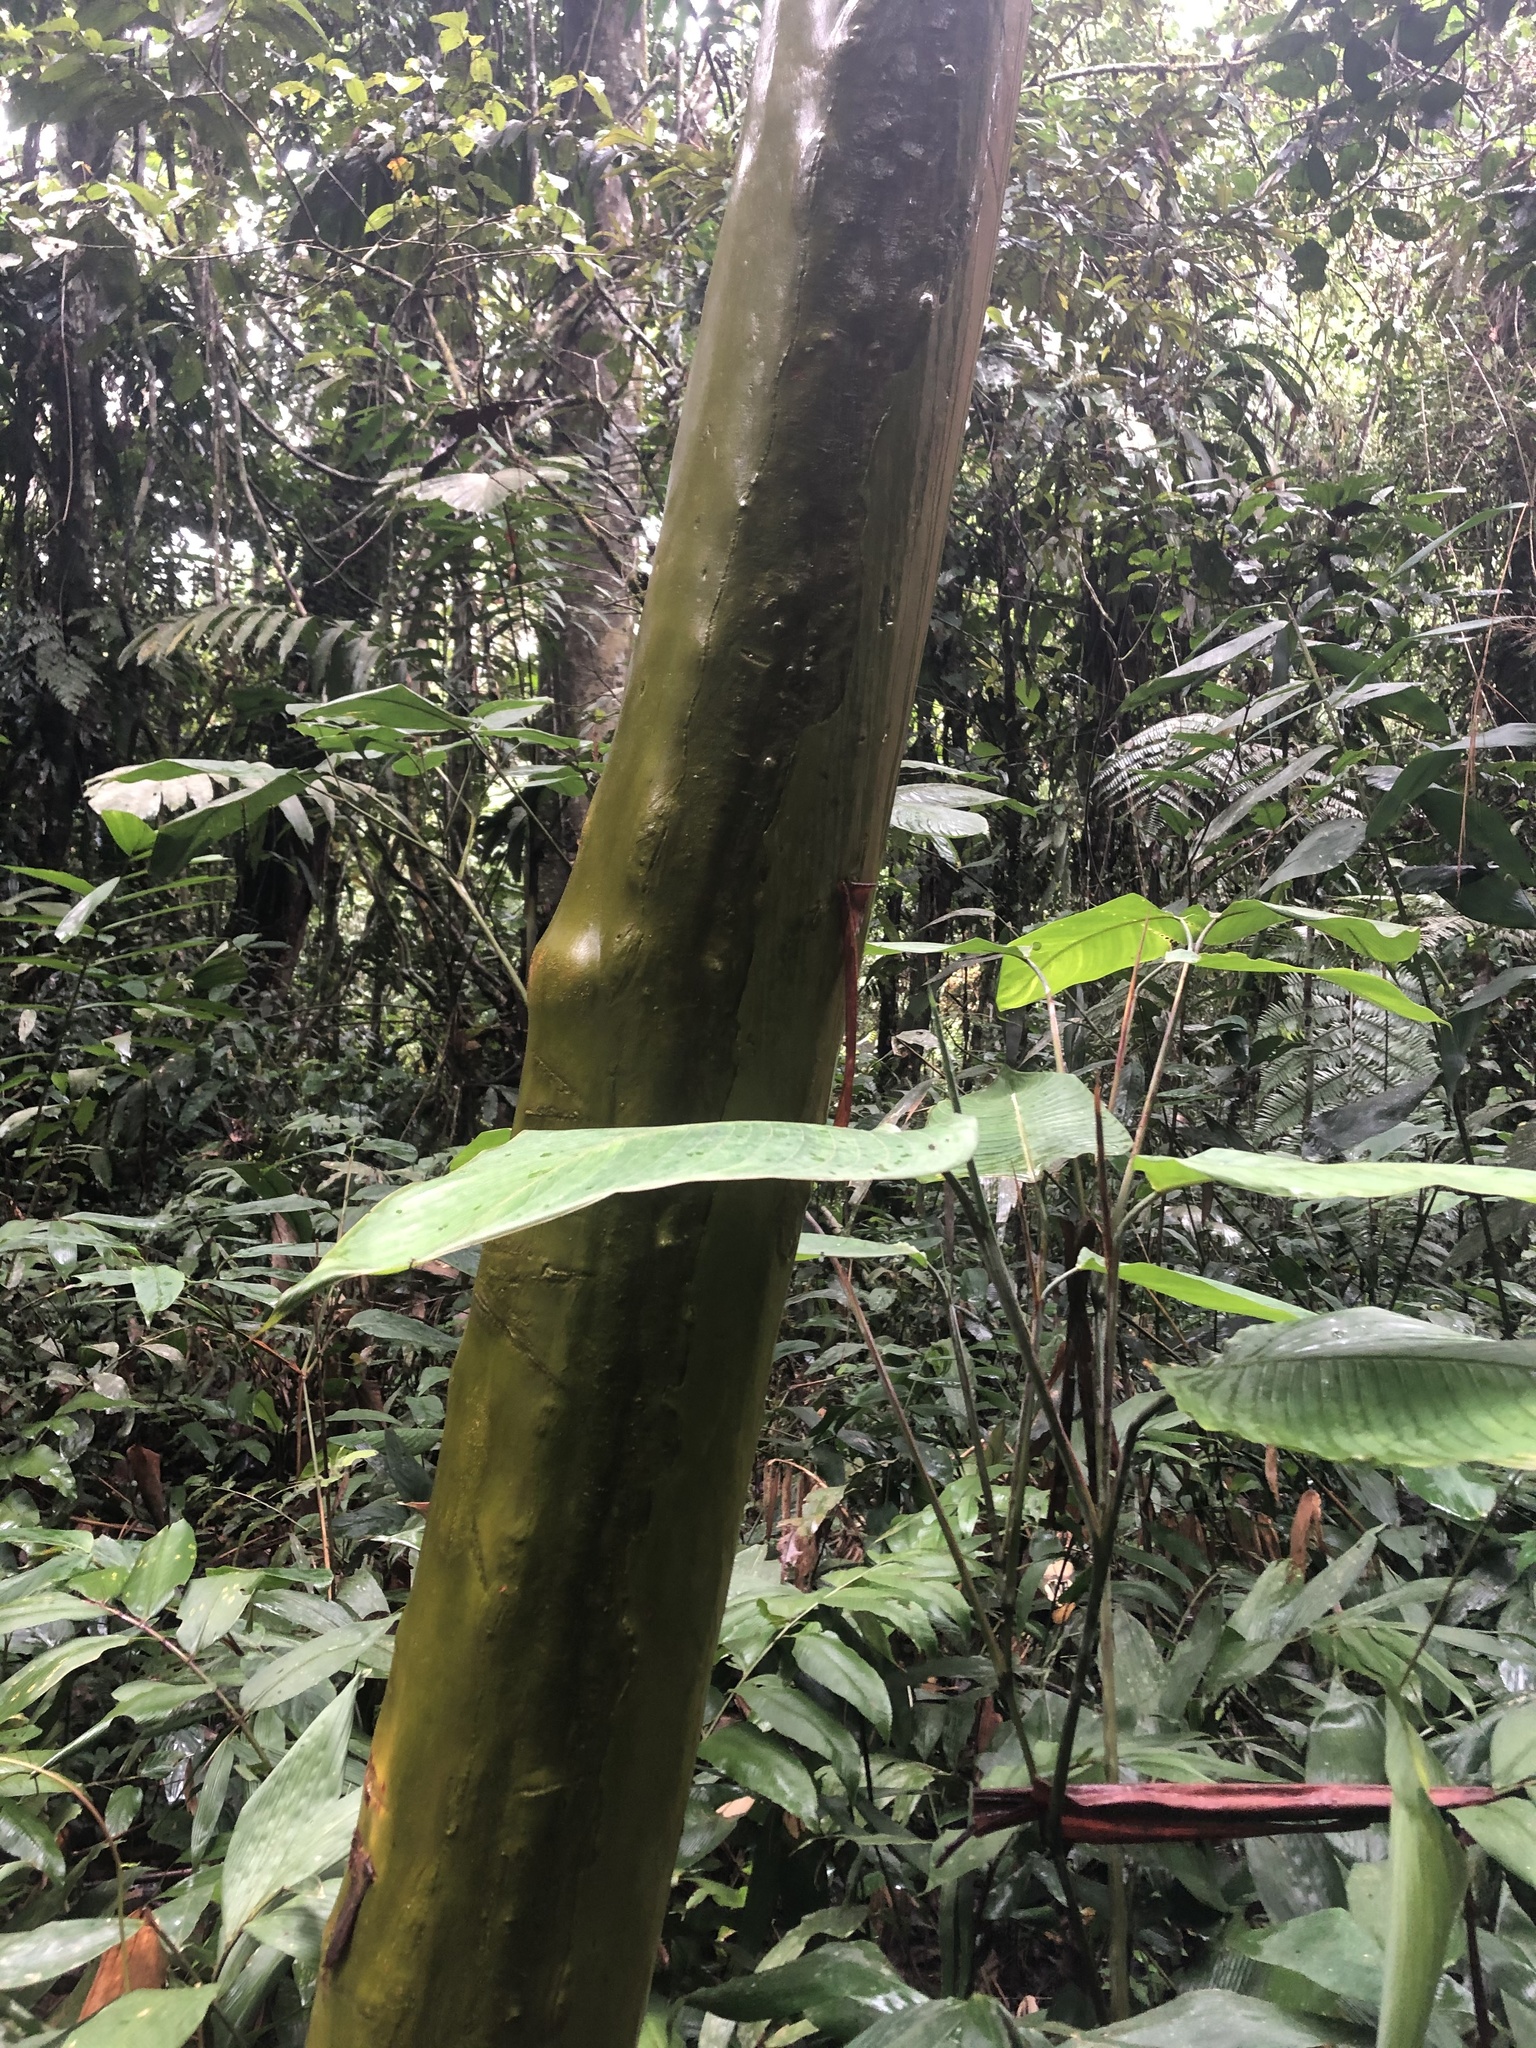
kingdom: Plantae
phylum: Tracheophyta
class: Magnoliopsida
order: Gentianales
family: Rubiaceae
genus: Capirona
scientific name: Capirona macrophylla
